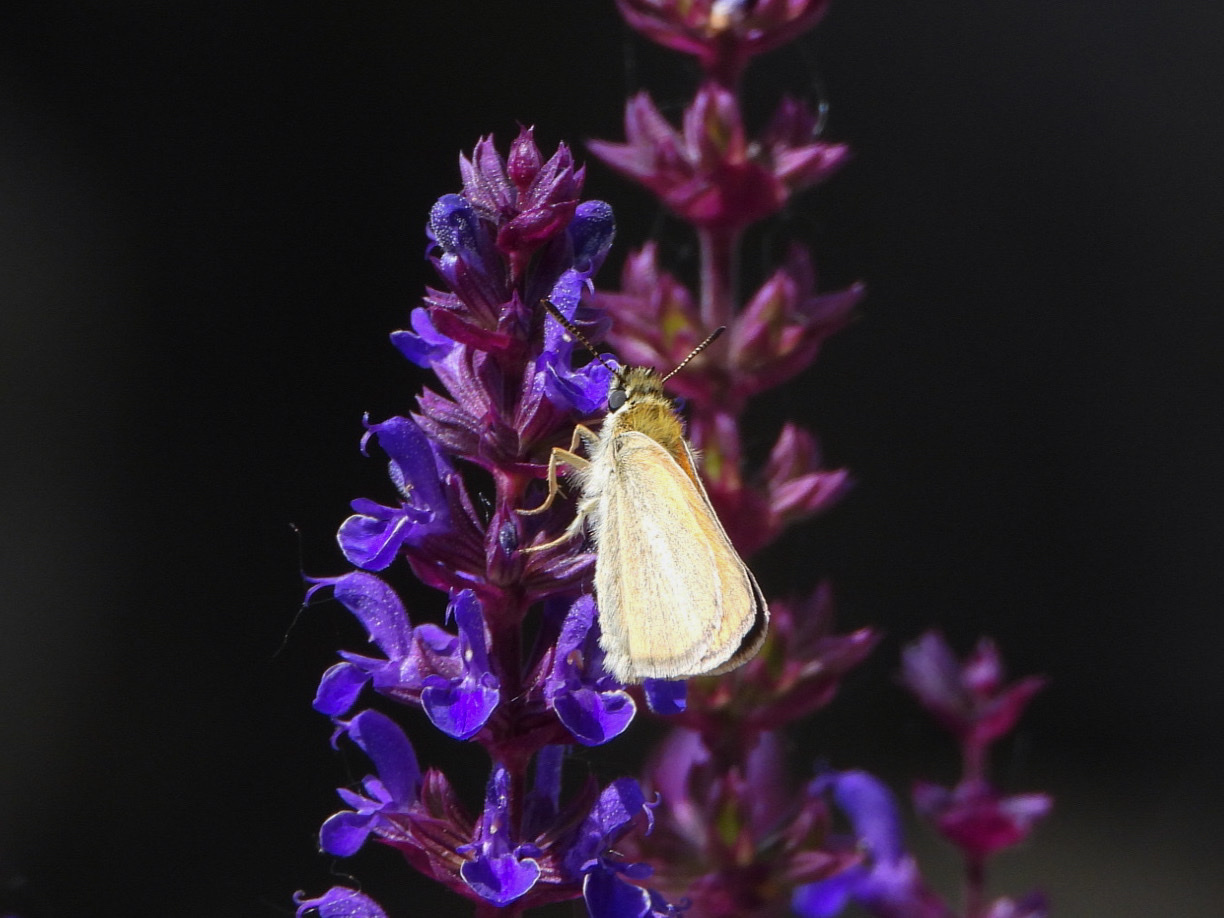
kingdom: Animalia
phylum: Arthropoda
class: Insecta
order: Lepidoptera
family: Hesperiidae
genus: Thymelicus
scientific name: Thymelicus lineola
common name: Essex skipper
